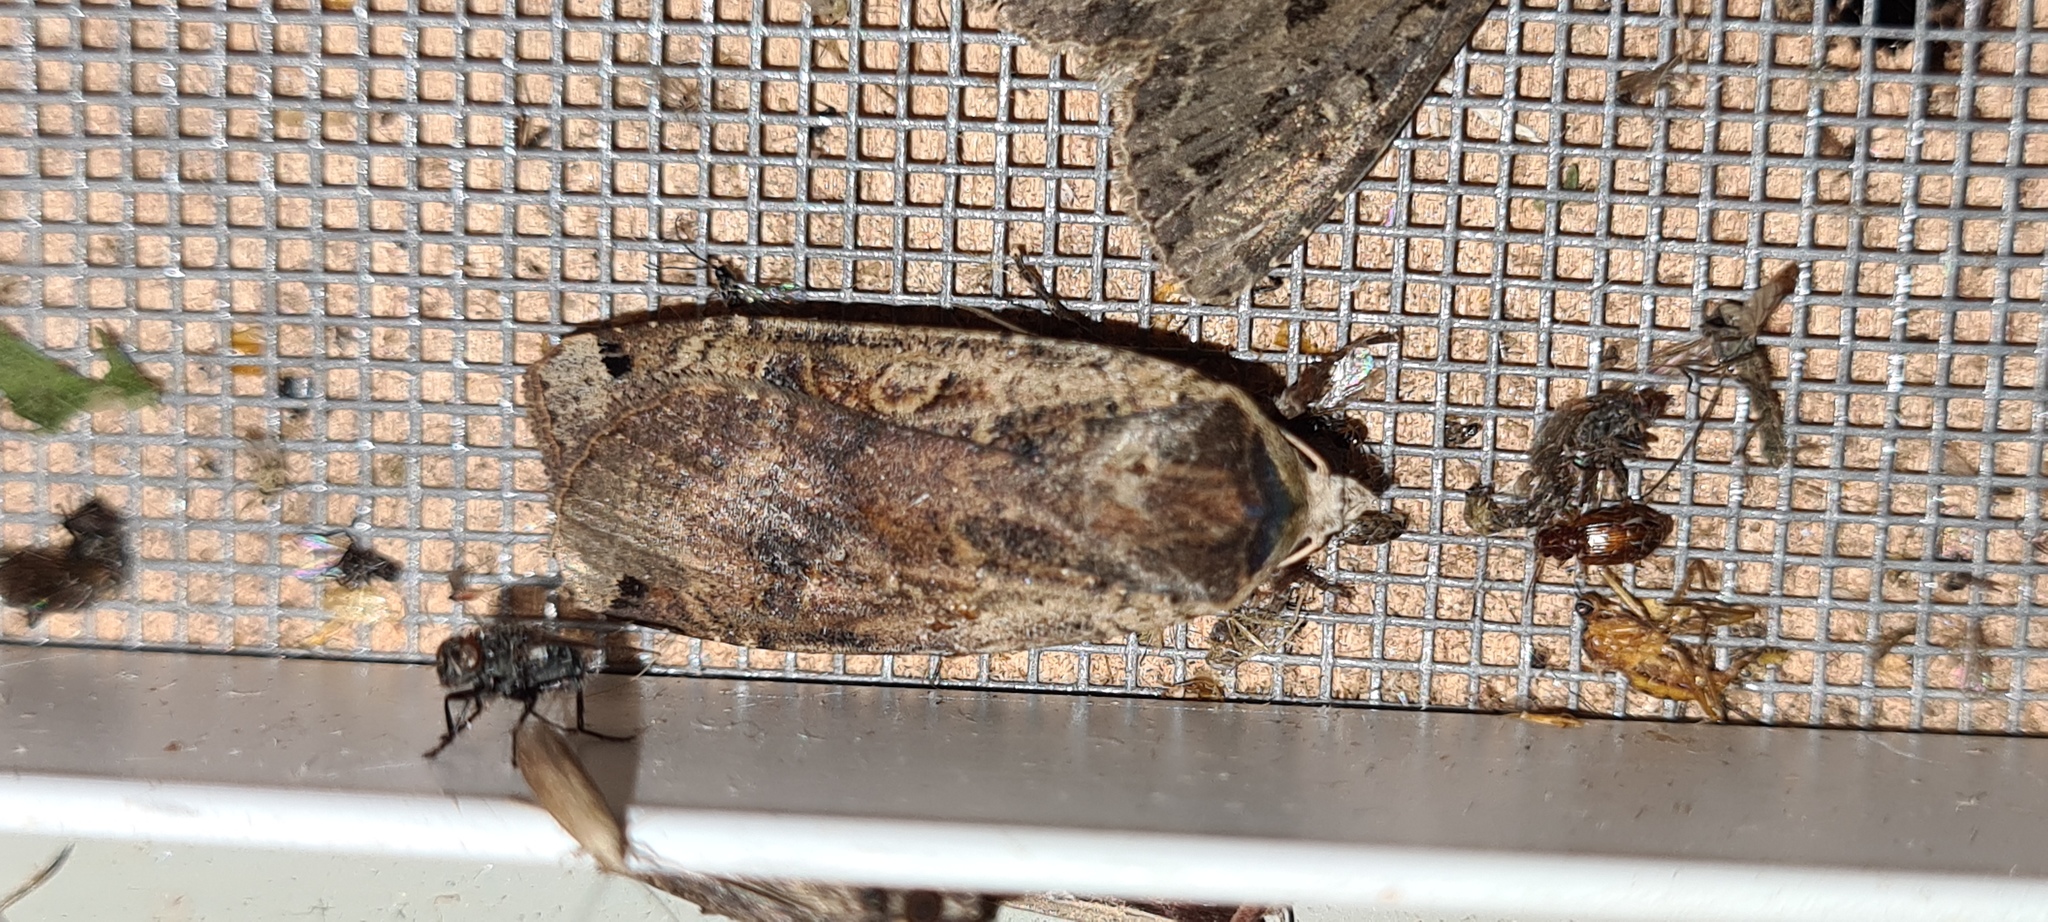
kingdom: Animalia
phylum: Arthropoda
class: Insecta
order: Lepidoptera
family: Noctuidae
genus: Noctua
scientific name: Noctua pronuba
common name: Large yellow underwing
